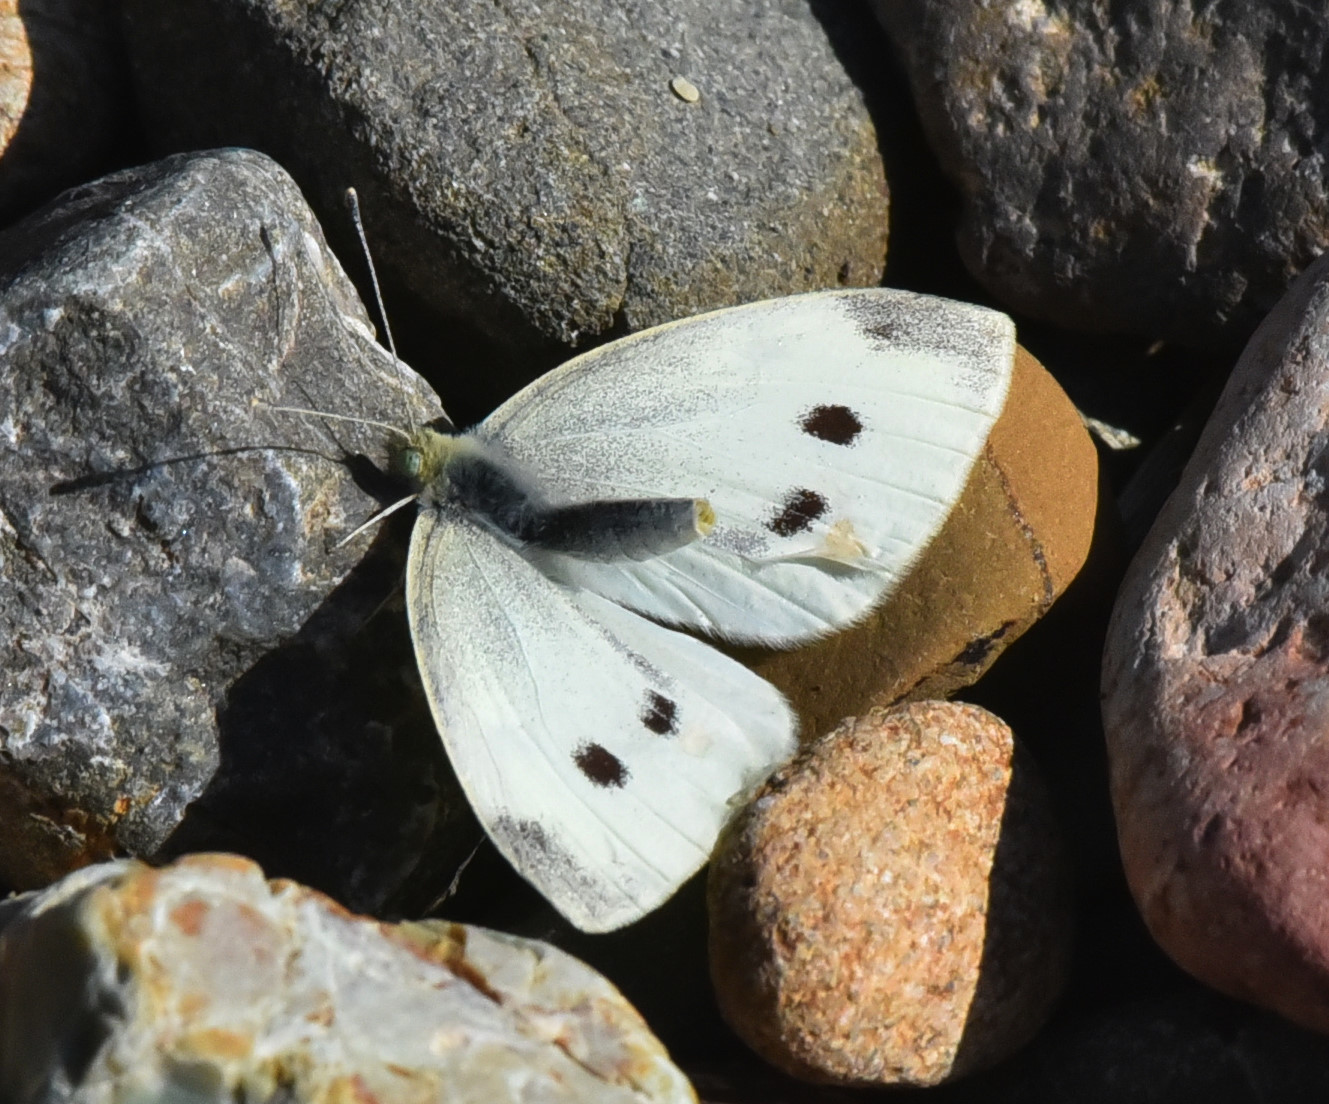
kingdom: Animalia
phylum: Arthropoda
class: Insecta
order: Lepidoptera
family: Pieridae
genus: Pieris
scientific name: Pieris rapae
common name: Small white
